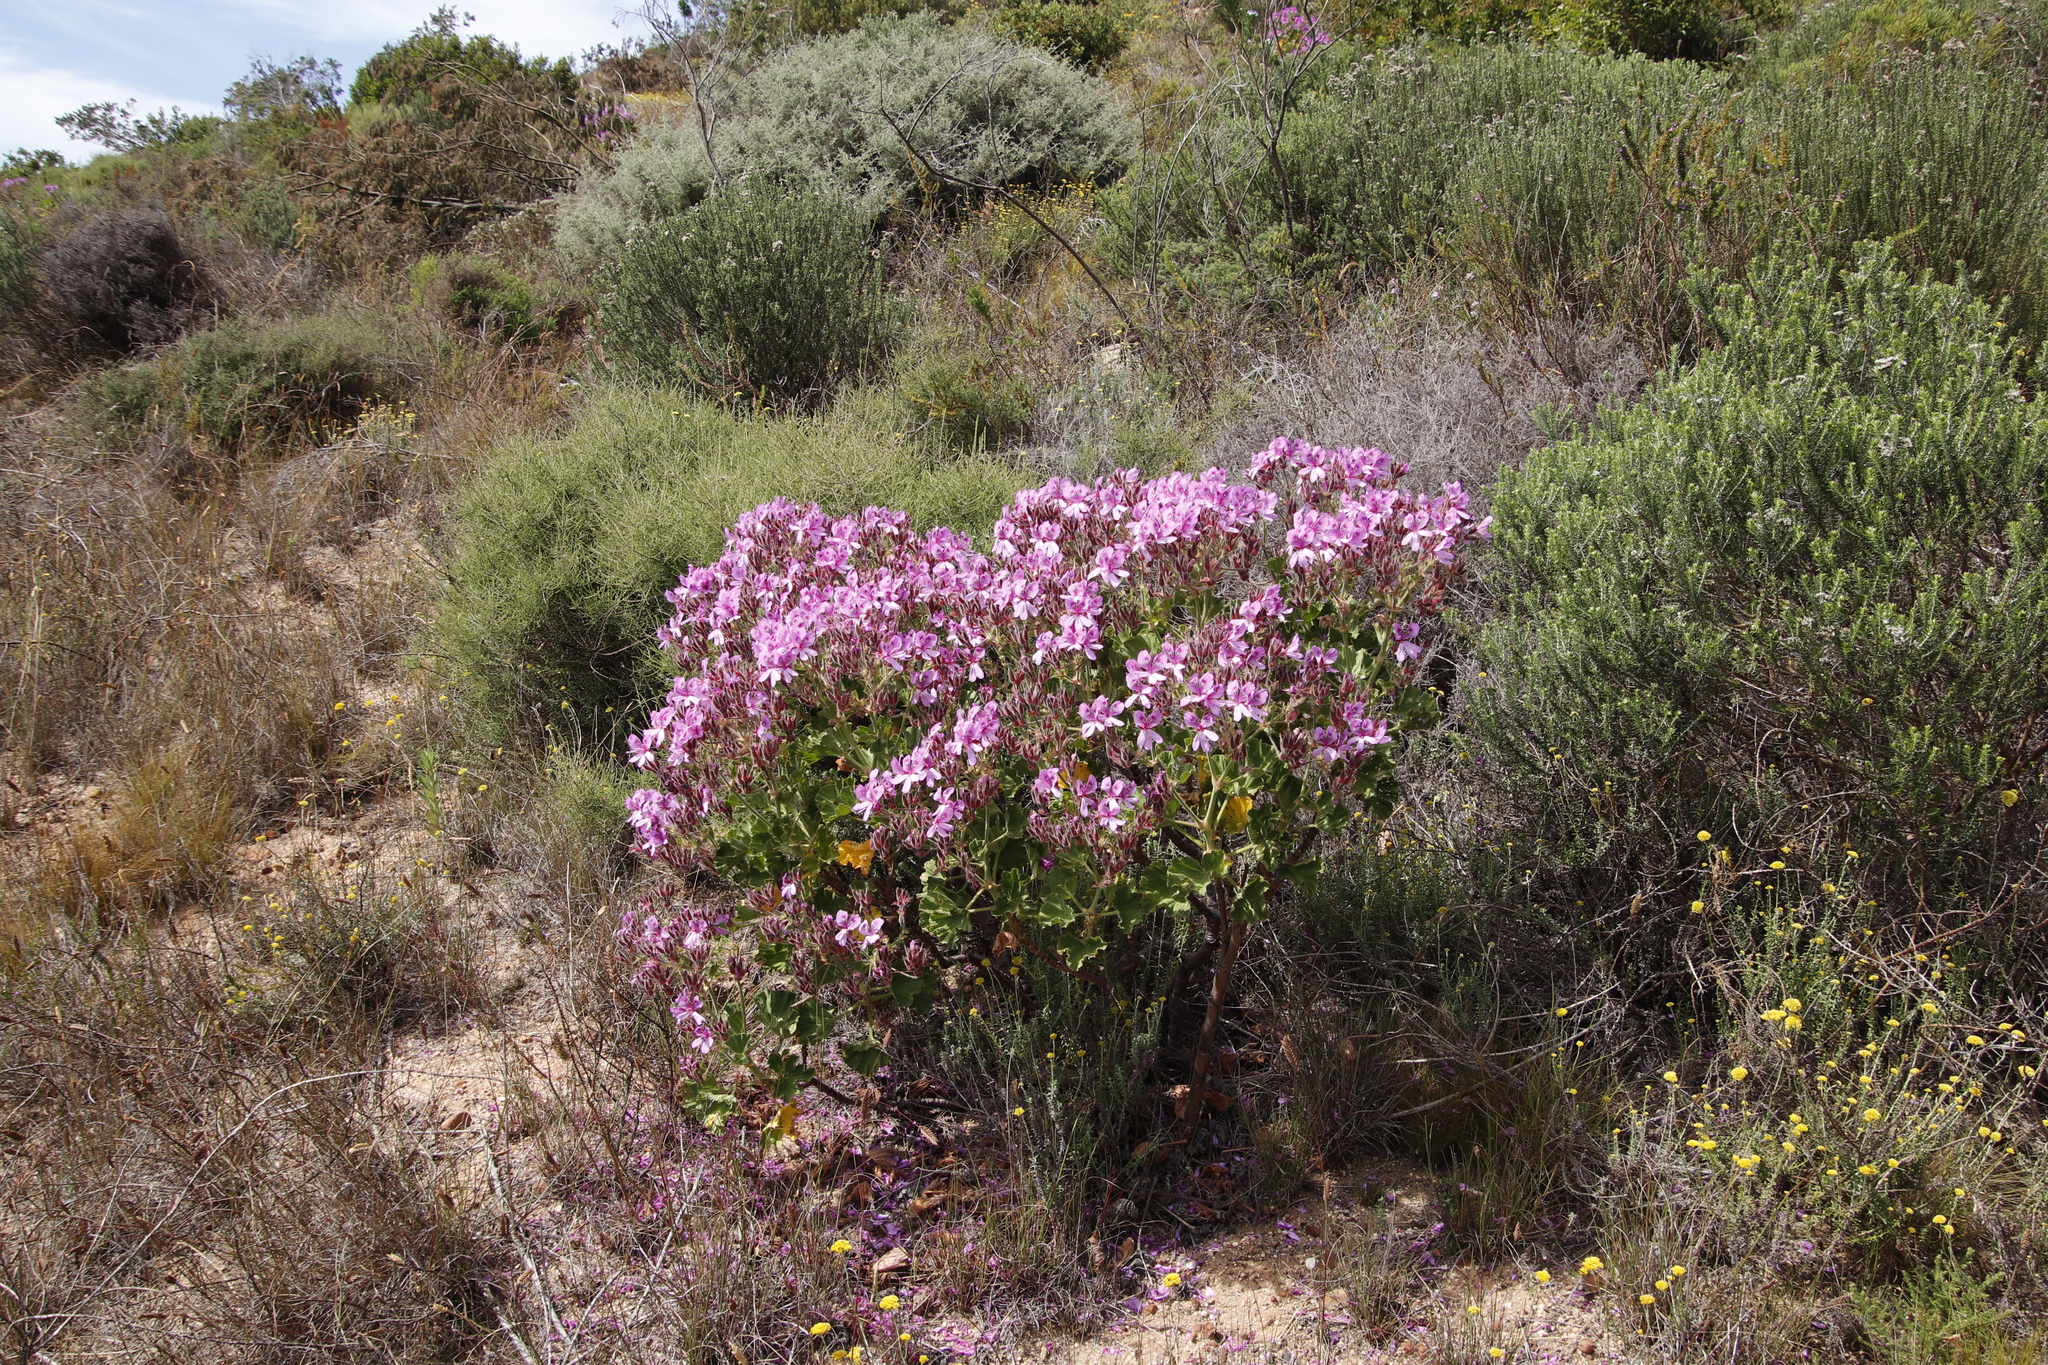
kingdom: Plantae
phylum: Tracheophyta
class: Magnoliopsida
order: Geraniales
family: Geraniaceae
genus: Pelargonium
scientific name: Pelargonium cucullatum
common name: Tree pelargonium
